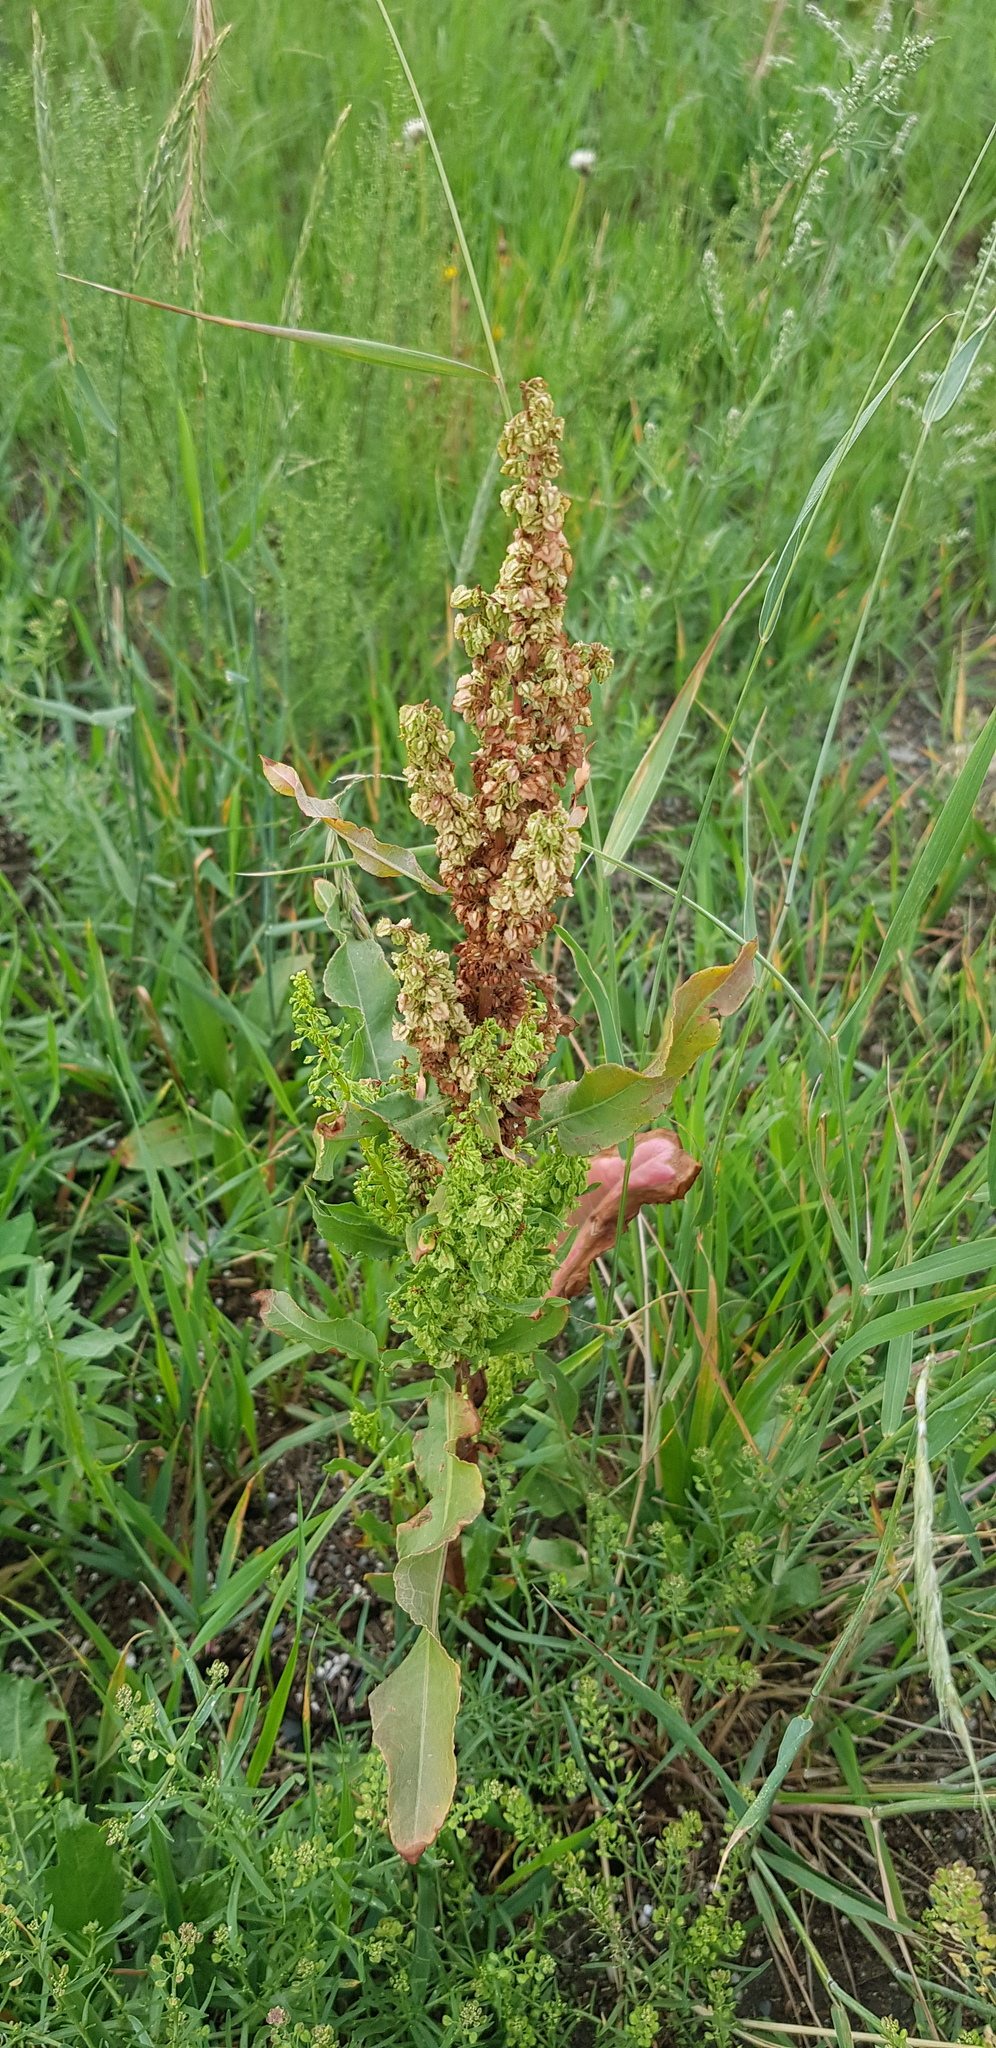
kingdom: Plantae
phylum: Tracheophyta
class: Magnoliopsida
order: Caryophyllales
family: Polygonaceae
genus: Rumex
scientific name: Rumex crispus
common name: Curled dock
